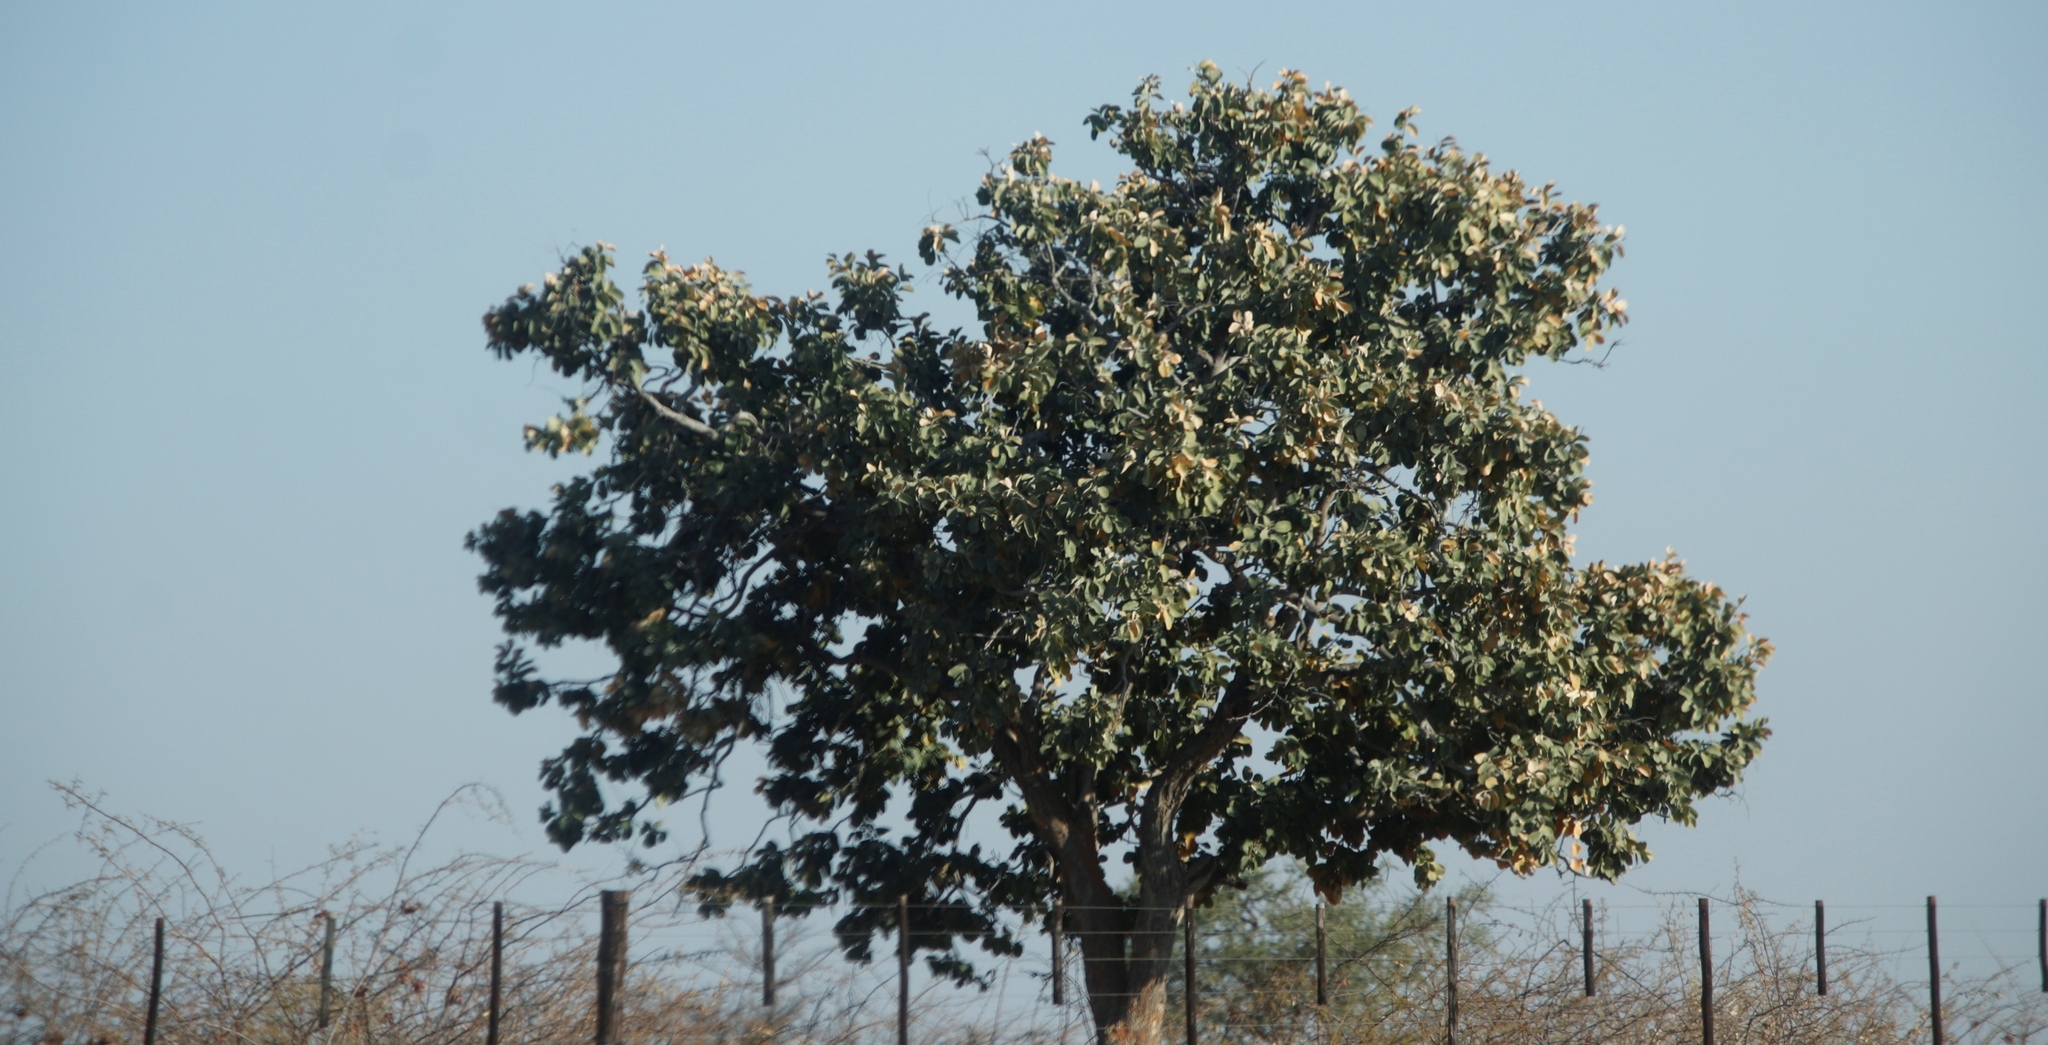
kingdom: Plantae
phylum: Tracheophyta
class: Magnoliopsida
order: Fabales
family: Fabaceae
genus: Philenoptera
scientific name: Philenoptera nelsii
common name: Kalahari apple-leaf
